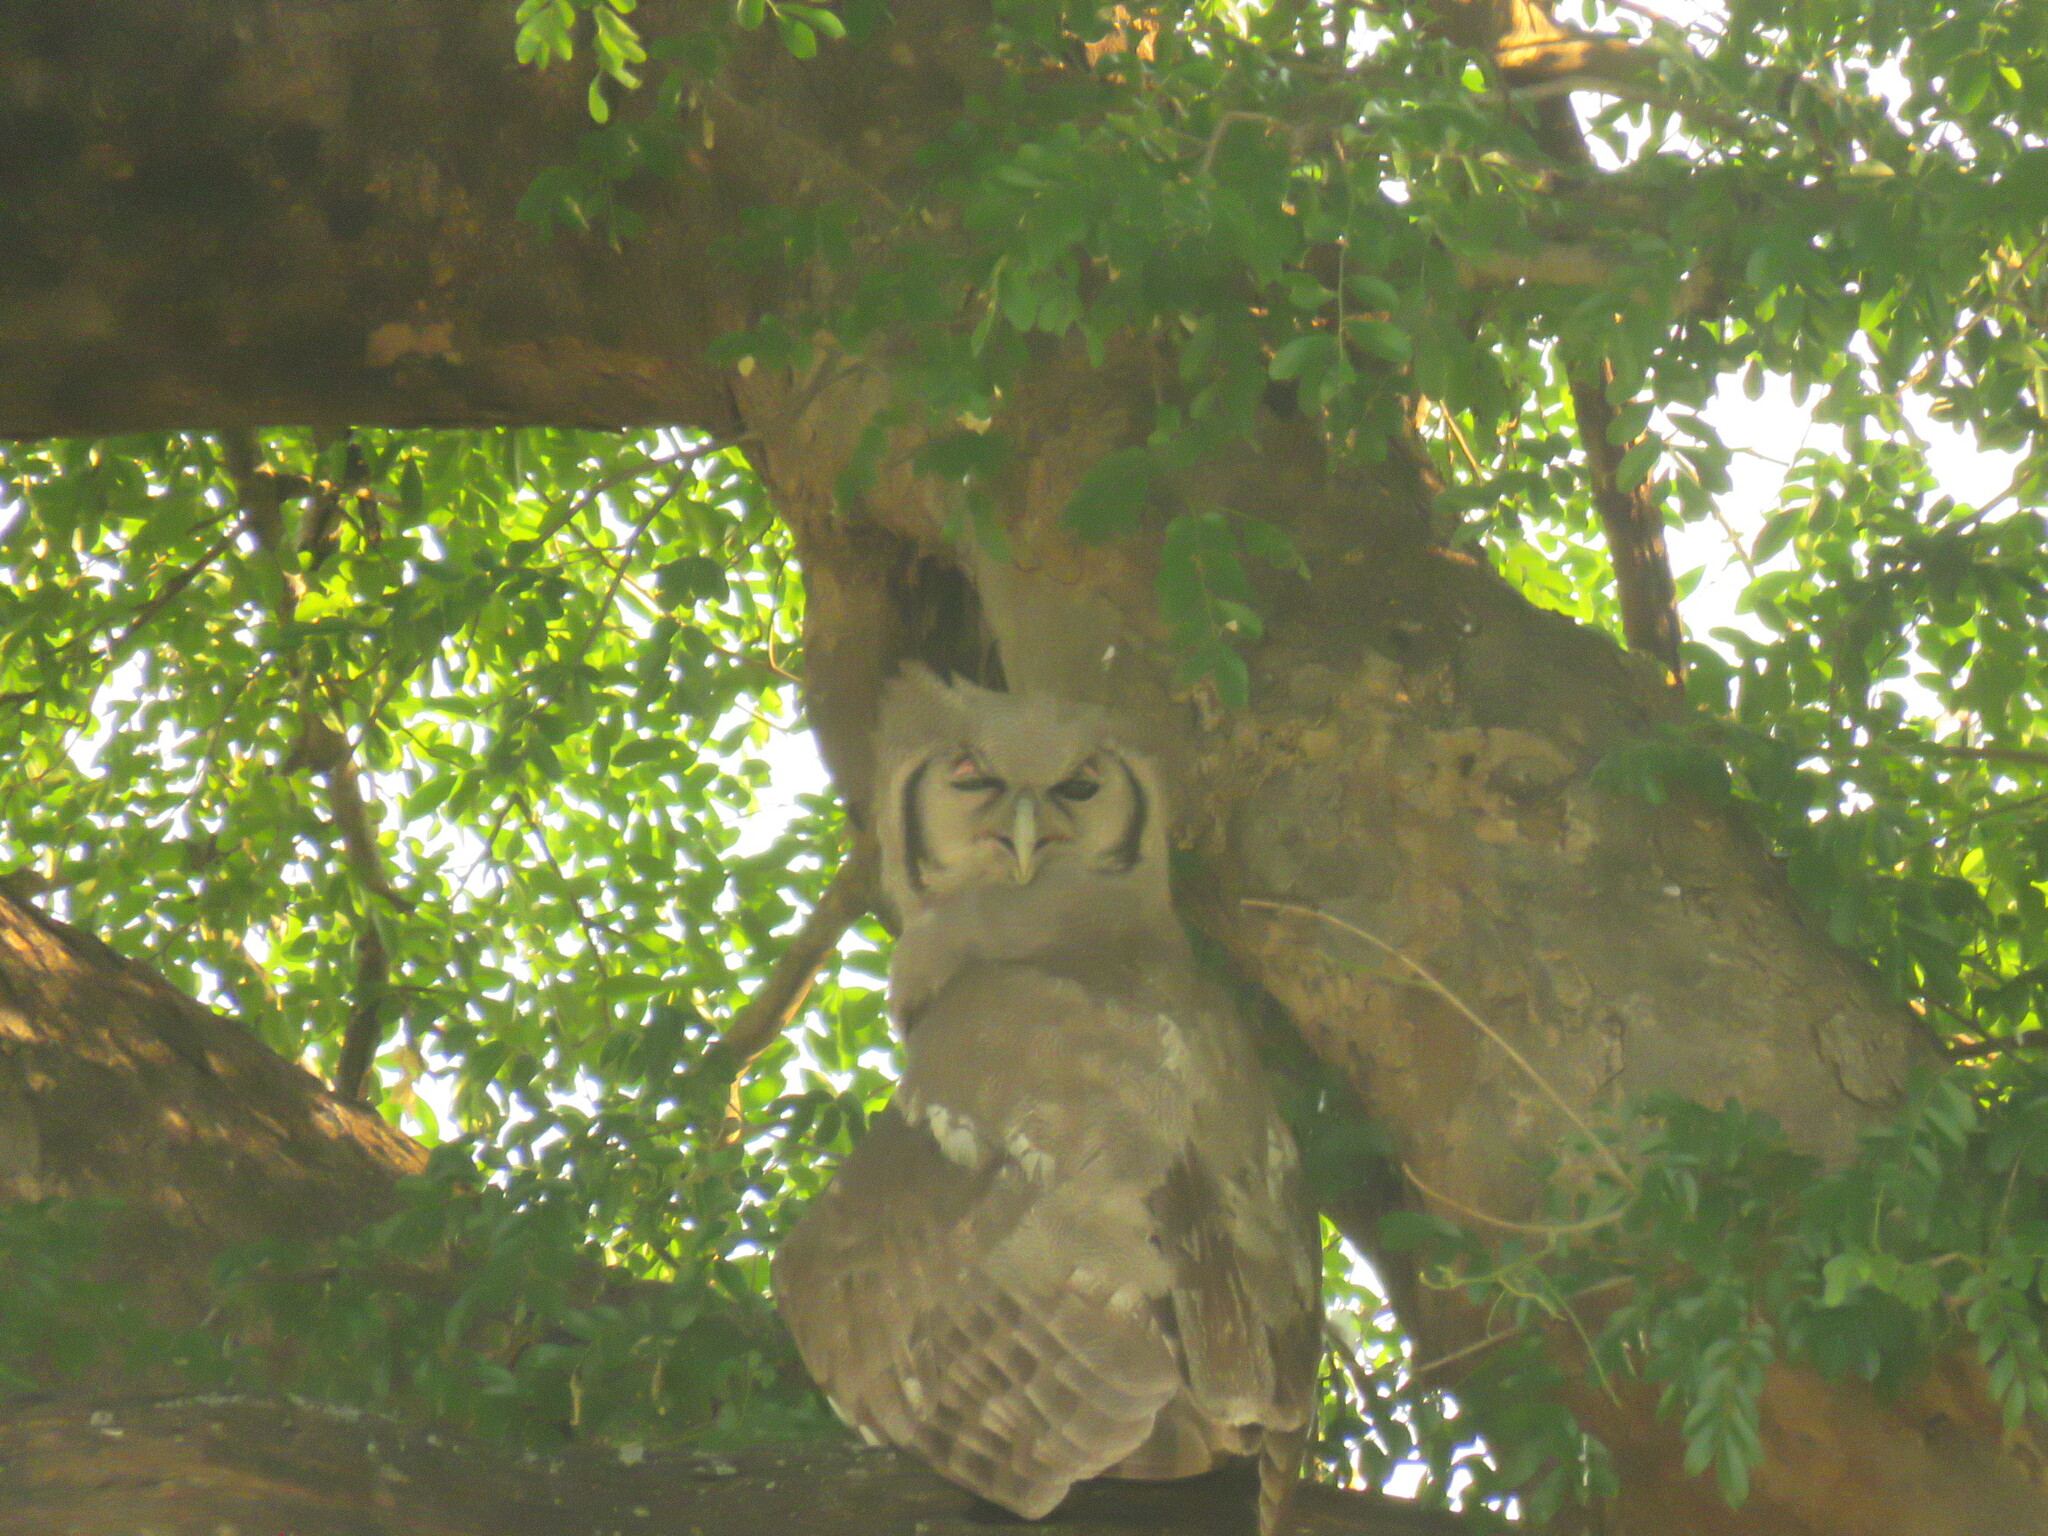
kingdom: Animalia
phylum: Chordata
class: Aves
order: Strigiformes
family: Strigidae
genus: Bubo
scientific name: Bubo lacteus
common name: Verreaux's eagle-owl
